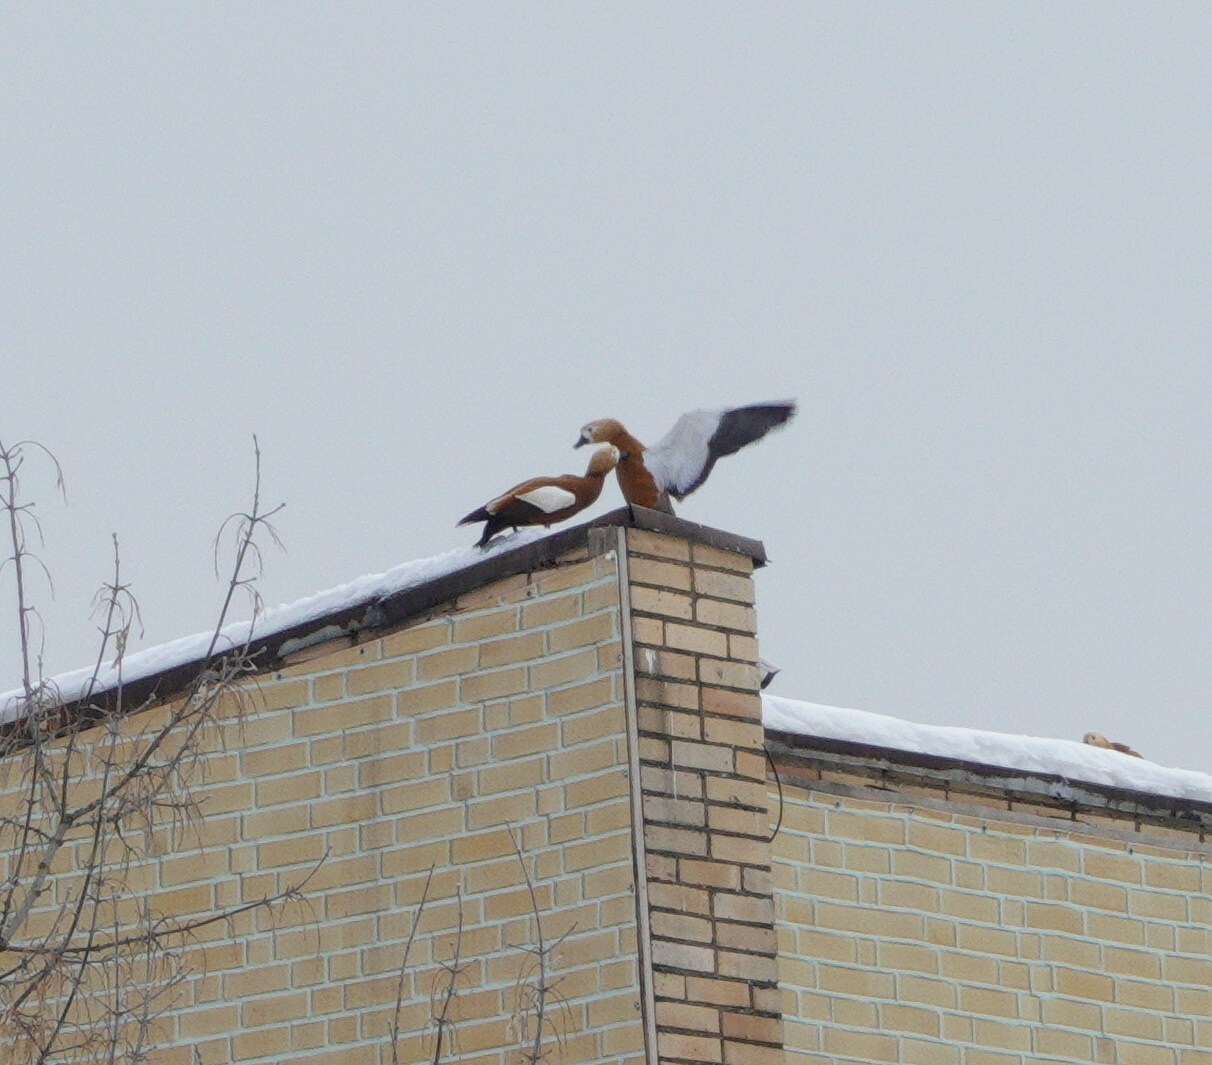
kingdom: Animalia
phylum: Chordata
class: Aves
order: Anseriformes
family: Anatidae
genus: Tadorna
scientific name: Tadorna ferruginea
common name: Ruddy shelduck
